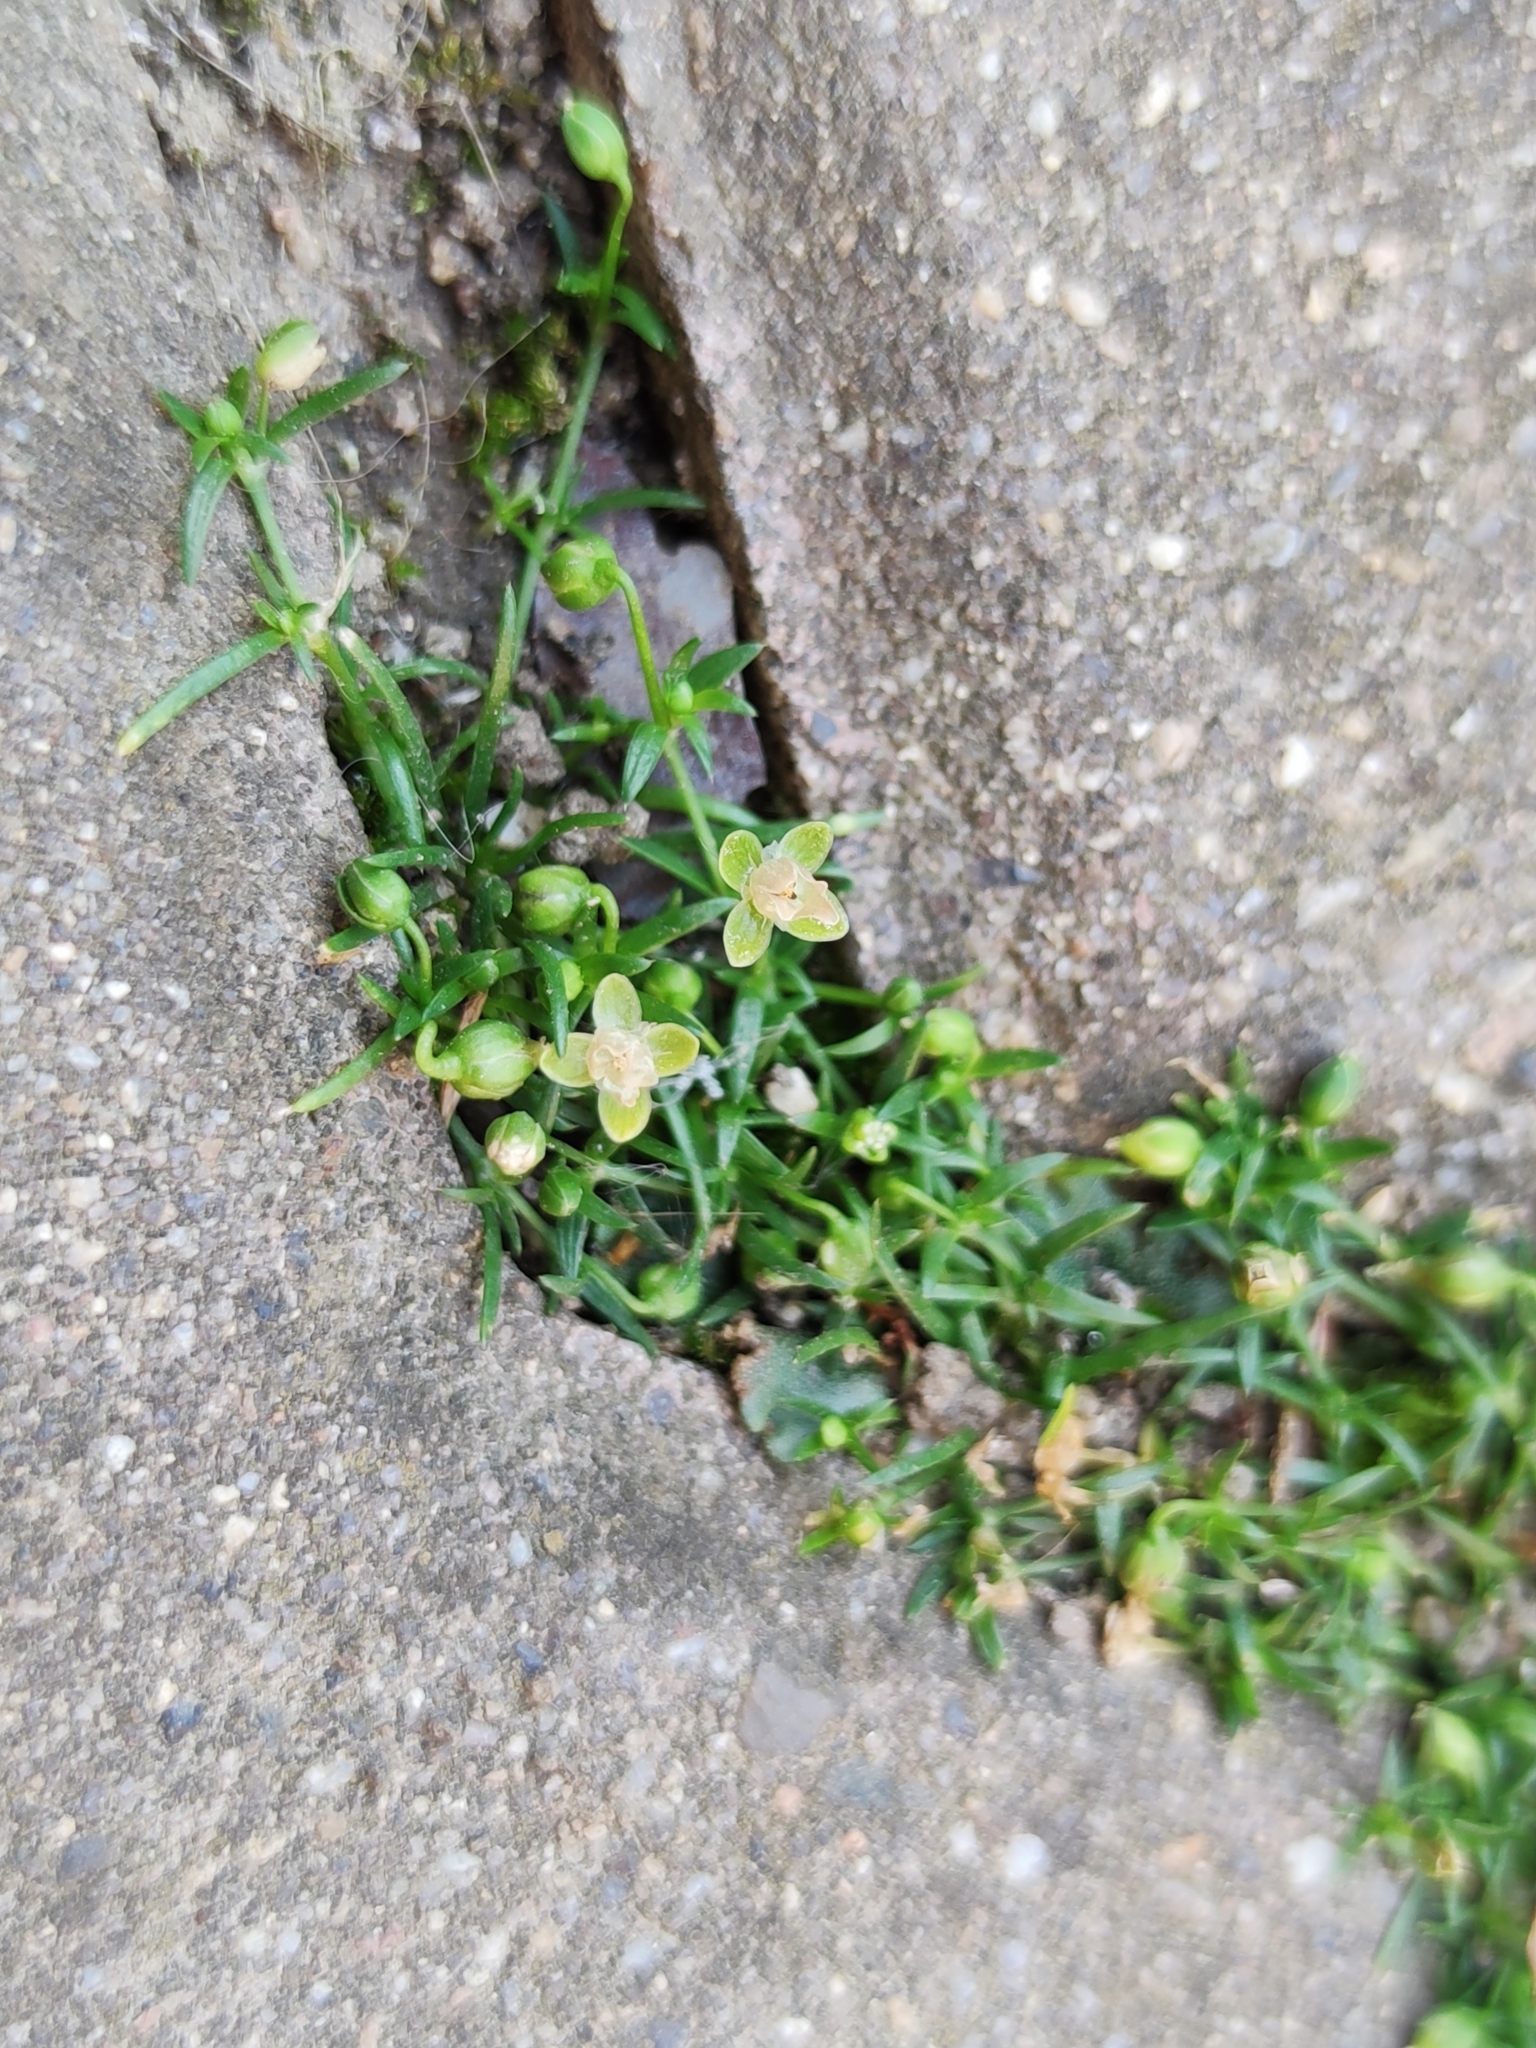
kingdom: Plantae
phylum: Tracheophyta
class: Magnoliopsida
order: Caryophyllales
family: Caryophyllaceae
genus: Sagina
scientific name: Sagina procumbens
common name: Procumbent pearlwort
